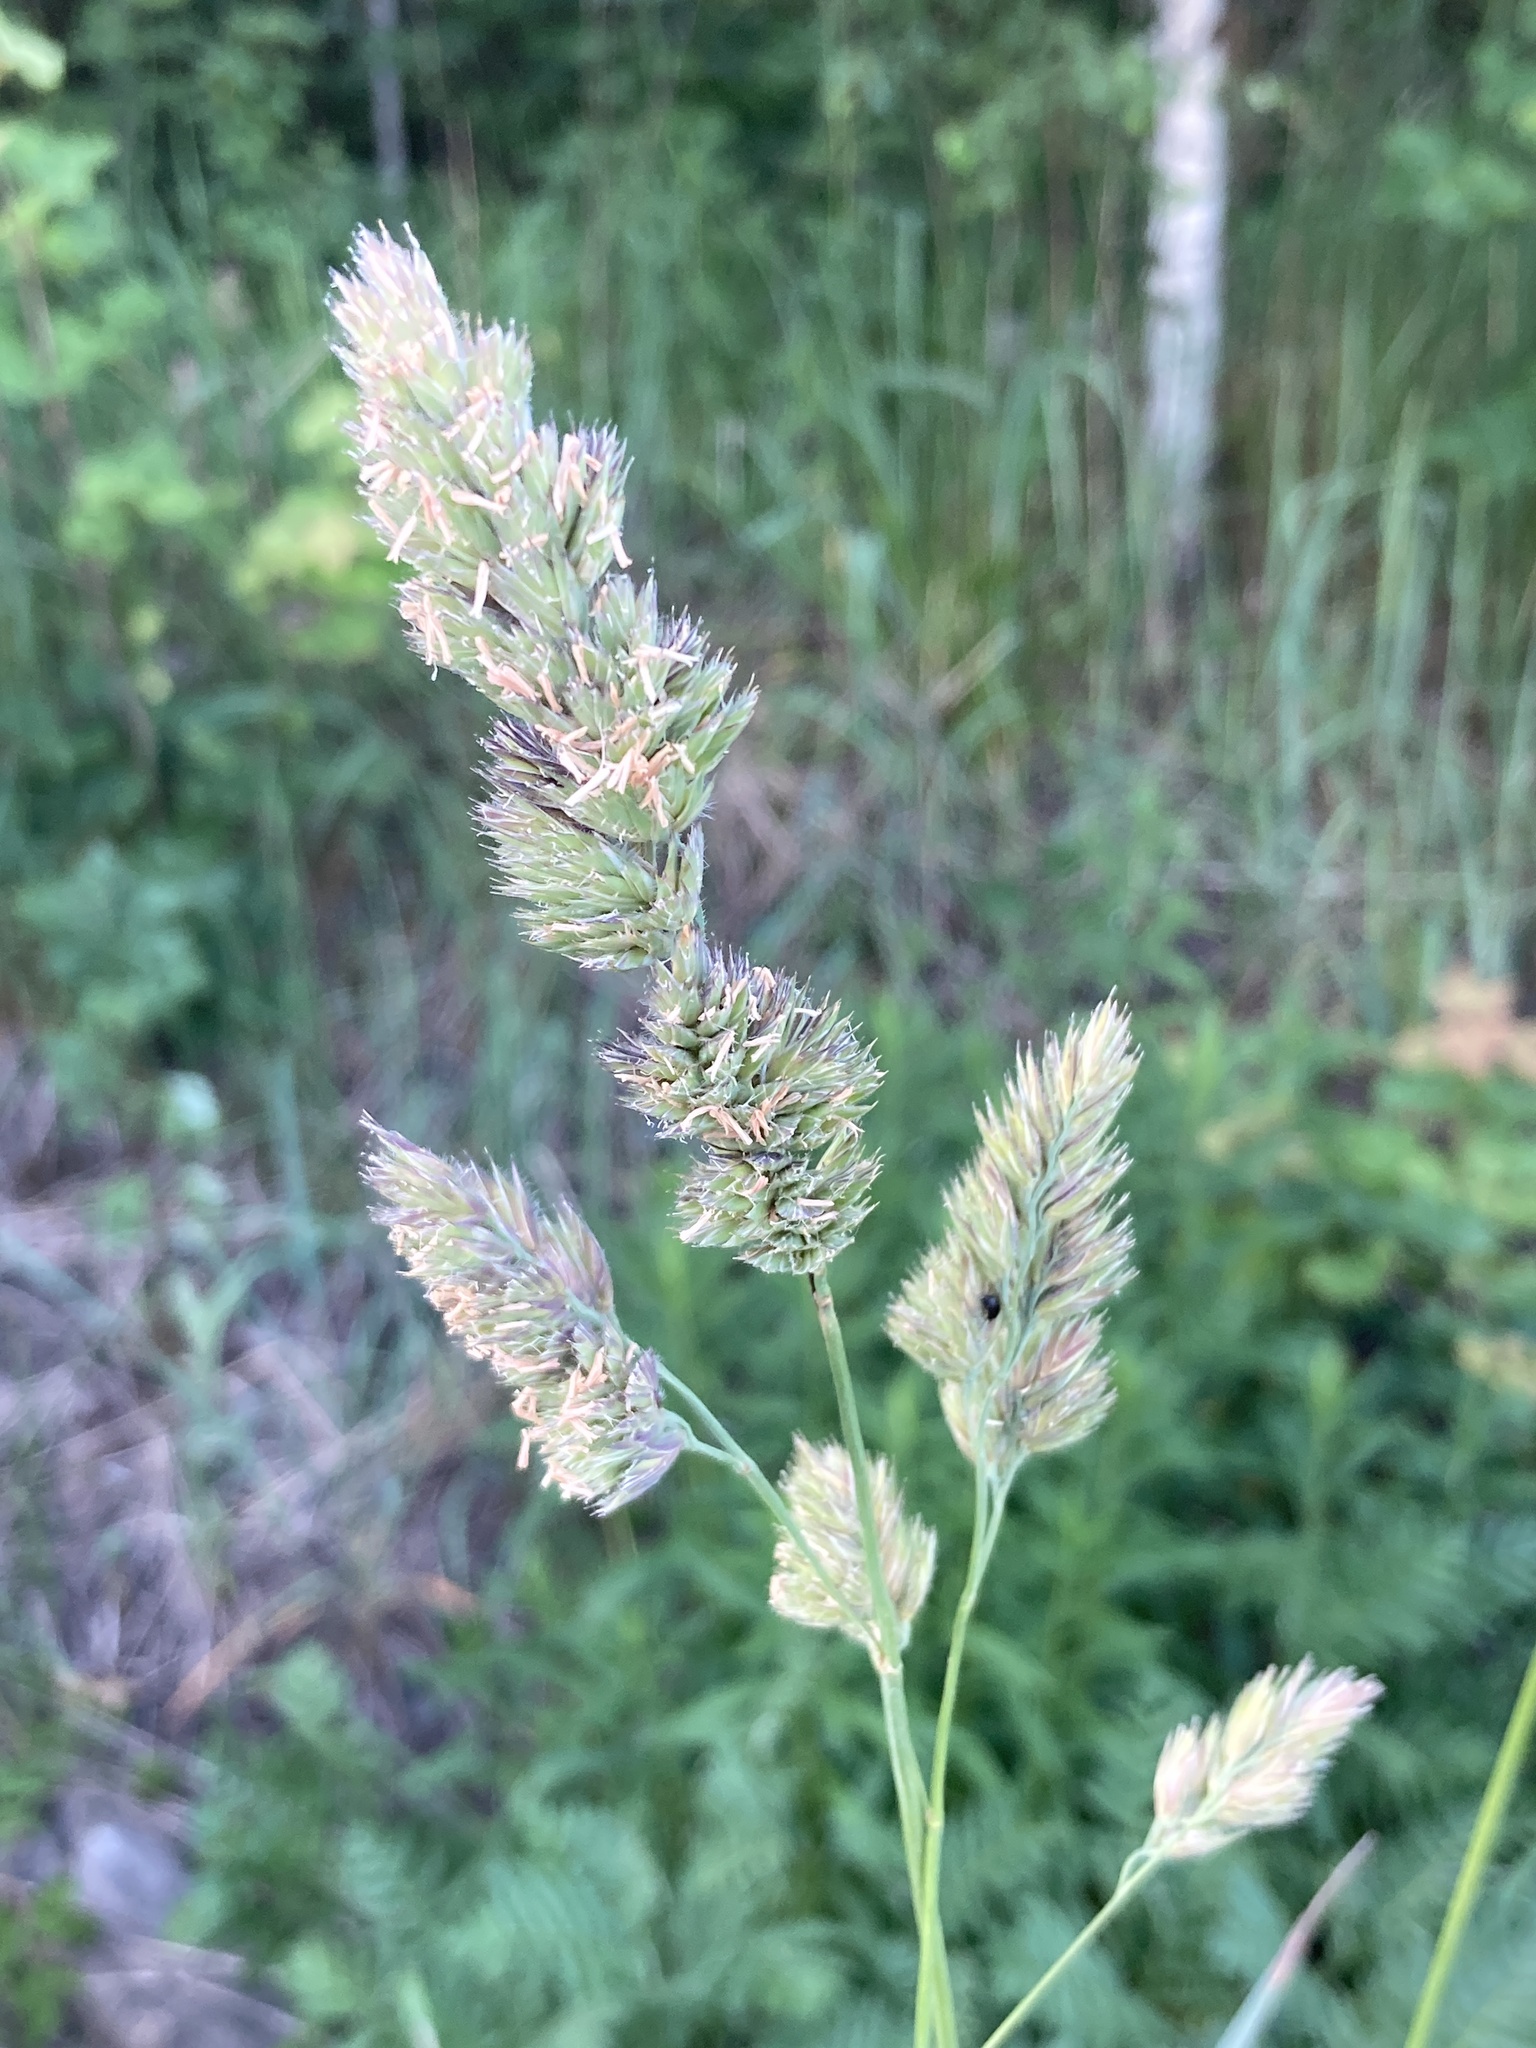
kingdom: Plantae
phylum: Tracheophyta
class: Liliopsida
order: Poales
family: Poaceae
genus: Dactylis
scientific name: Dactylis glomerata
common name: Orchardgrass
